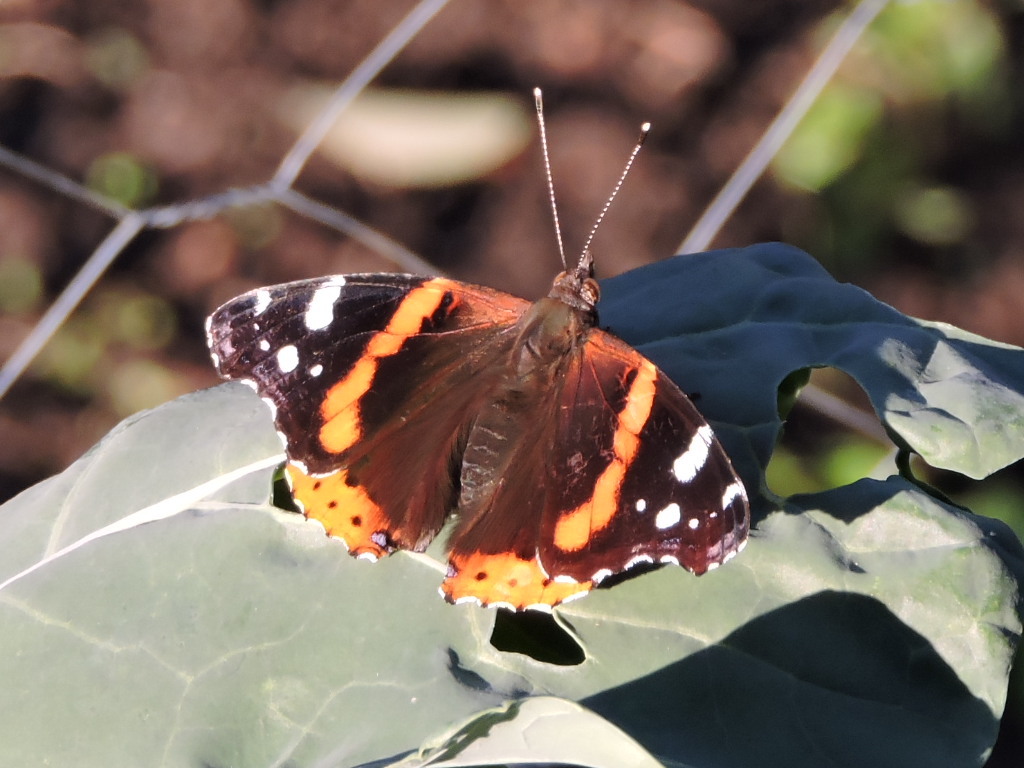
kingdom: Animalia
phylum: Arthropoda
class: Insecta
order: Lepidoptera
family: Nymphalidae
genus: Vanessa
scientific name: Vanessa atalanta
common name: Red admiral
